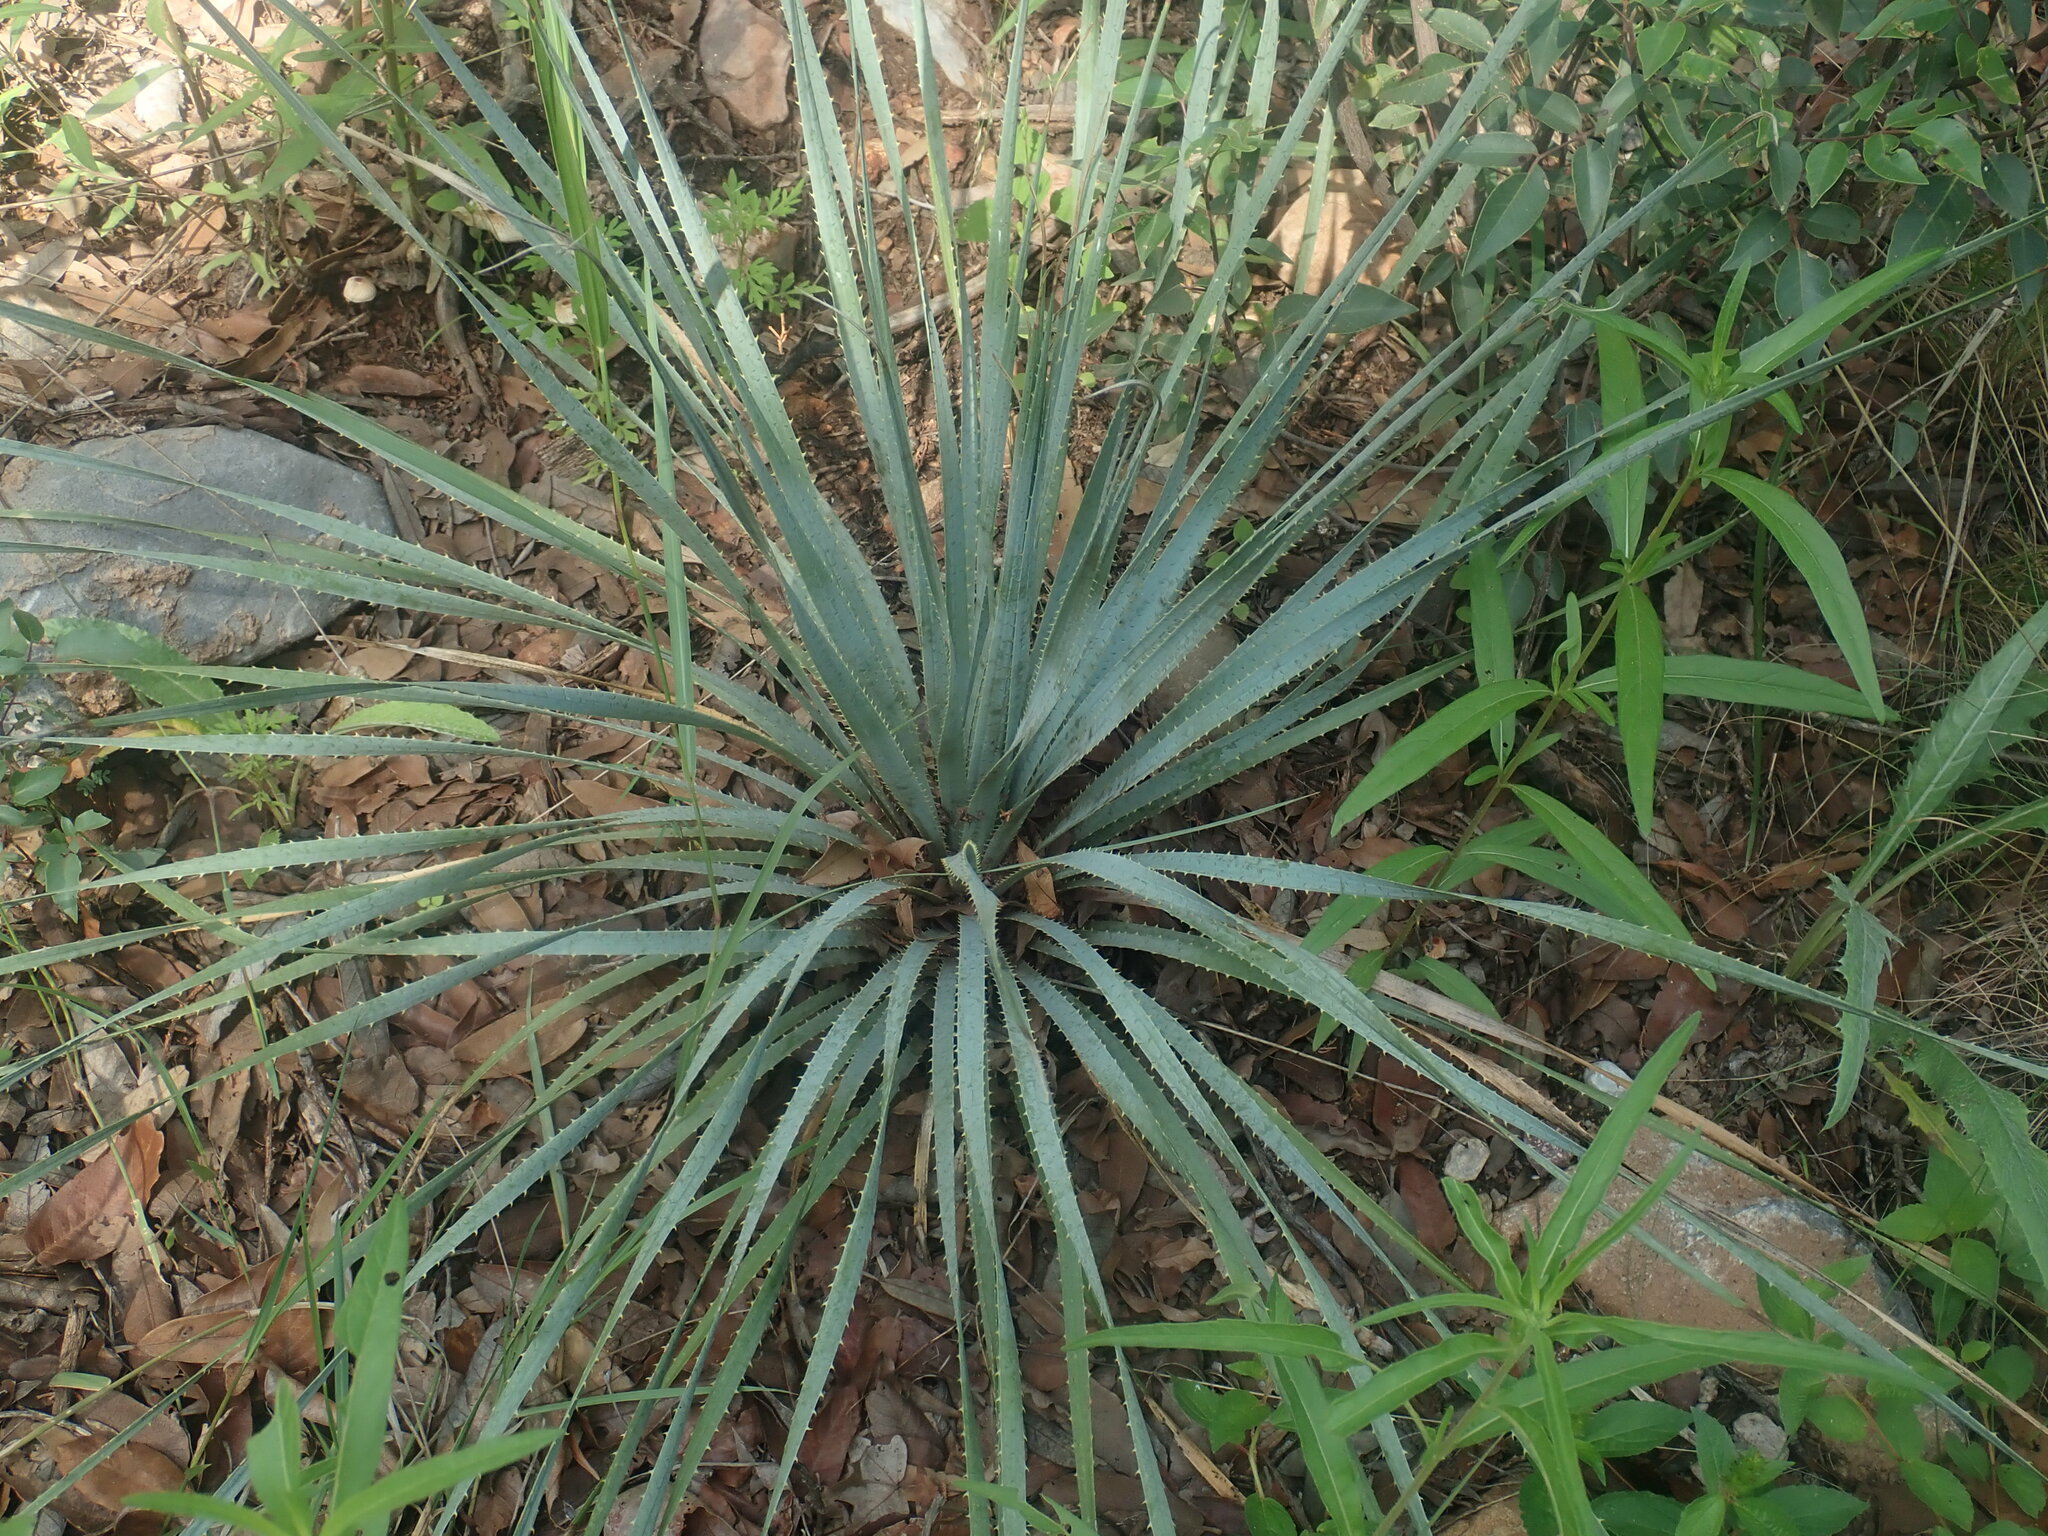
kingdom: Plantae
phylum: Tracheophyta
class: Liliopsida
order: Asparagales
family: Asparagaceae
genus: Dasylirion
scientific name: Dasylirion wheeleri
